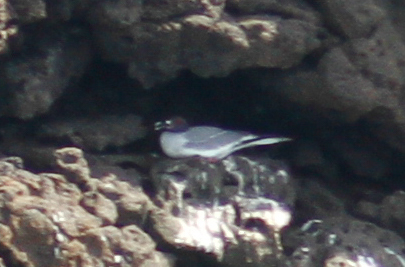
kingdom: Animalia
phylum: Chordata
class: Aves
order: Charadriiformes
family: Laridae
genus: Creagrus
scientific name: Creagrus furcatus
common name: Swallow-tailed gull
